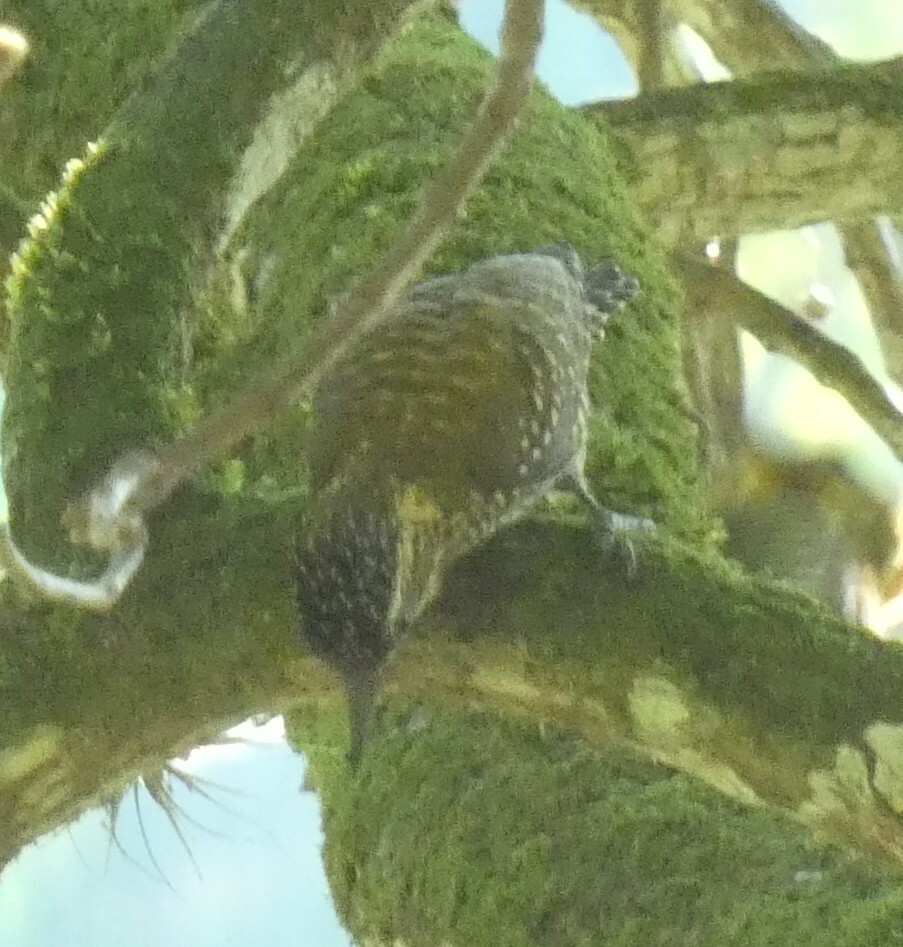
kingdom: Animalia
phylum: Chordata
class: Aves
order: Piciformes
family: Picidae
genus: Veniliornis
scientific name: Veniliornis spilogaster
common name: White-spotted woodpecker
